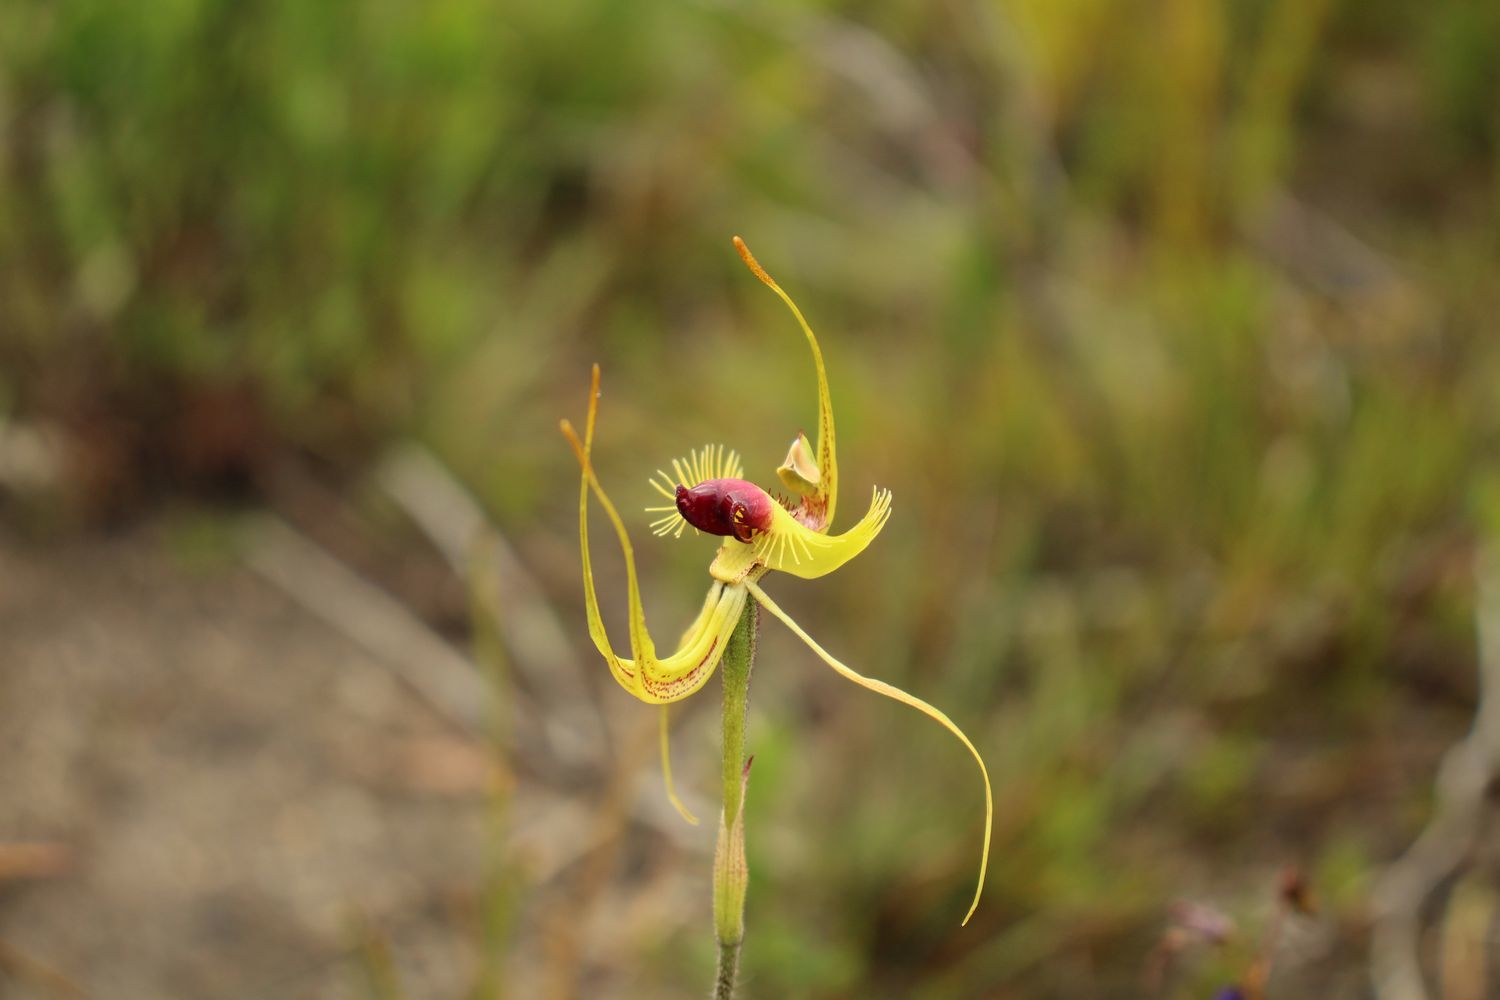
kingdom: Plantae
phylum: Tracheophyta
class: Liliopsida
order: Asparagales
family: Orchidaceae
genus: Caladenia
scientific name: Caladenia lobata
